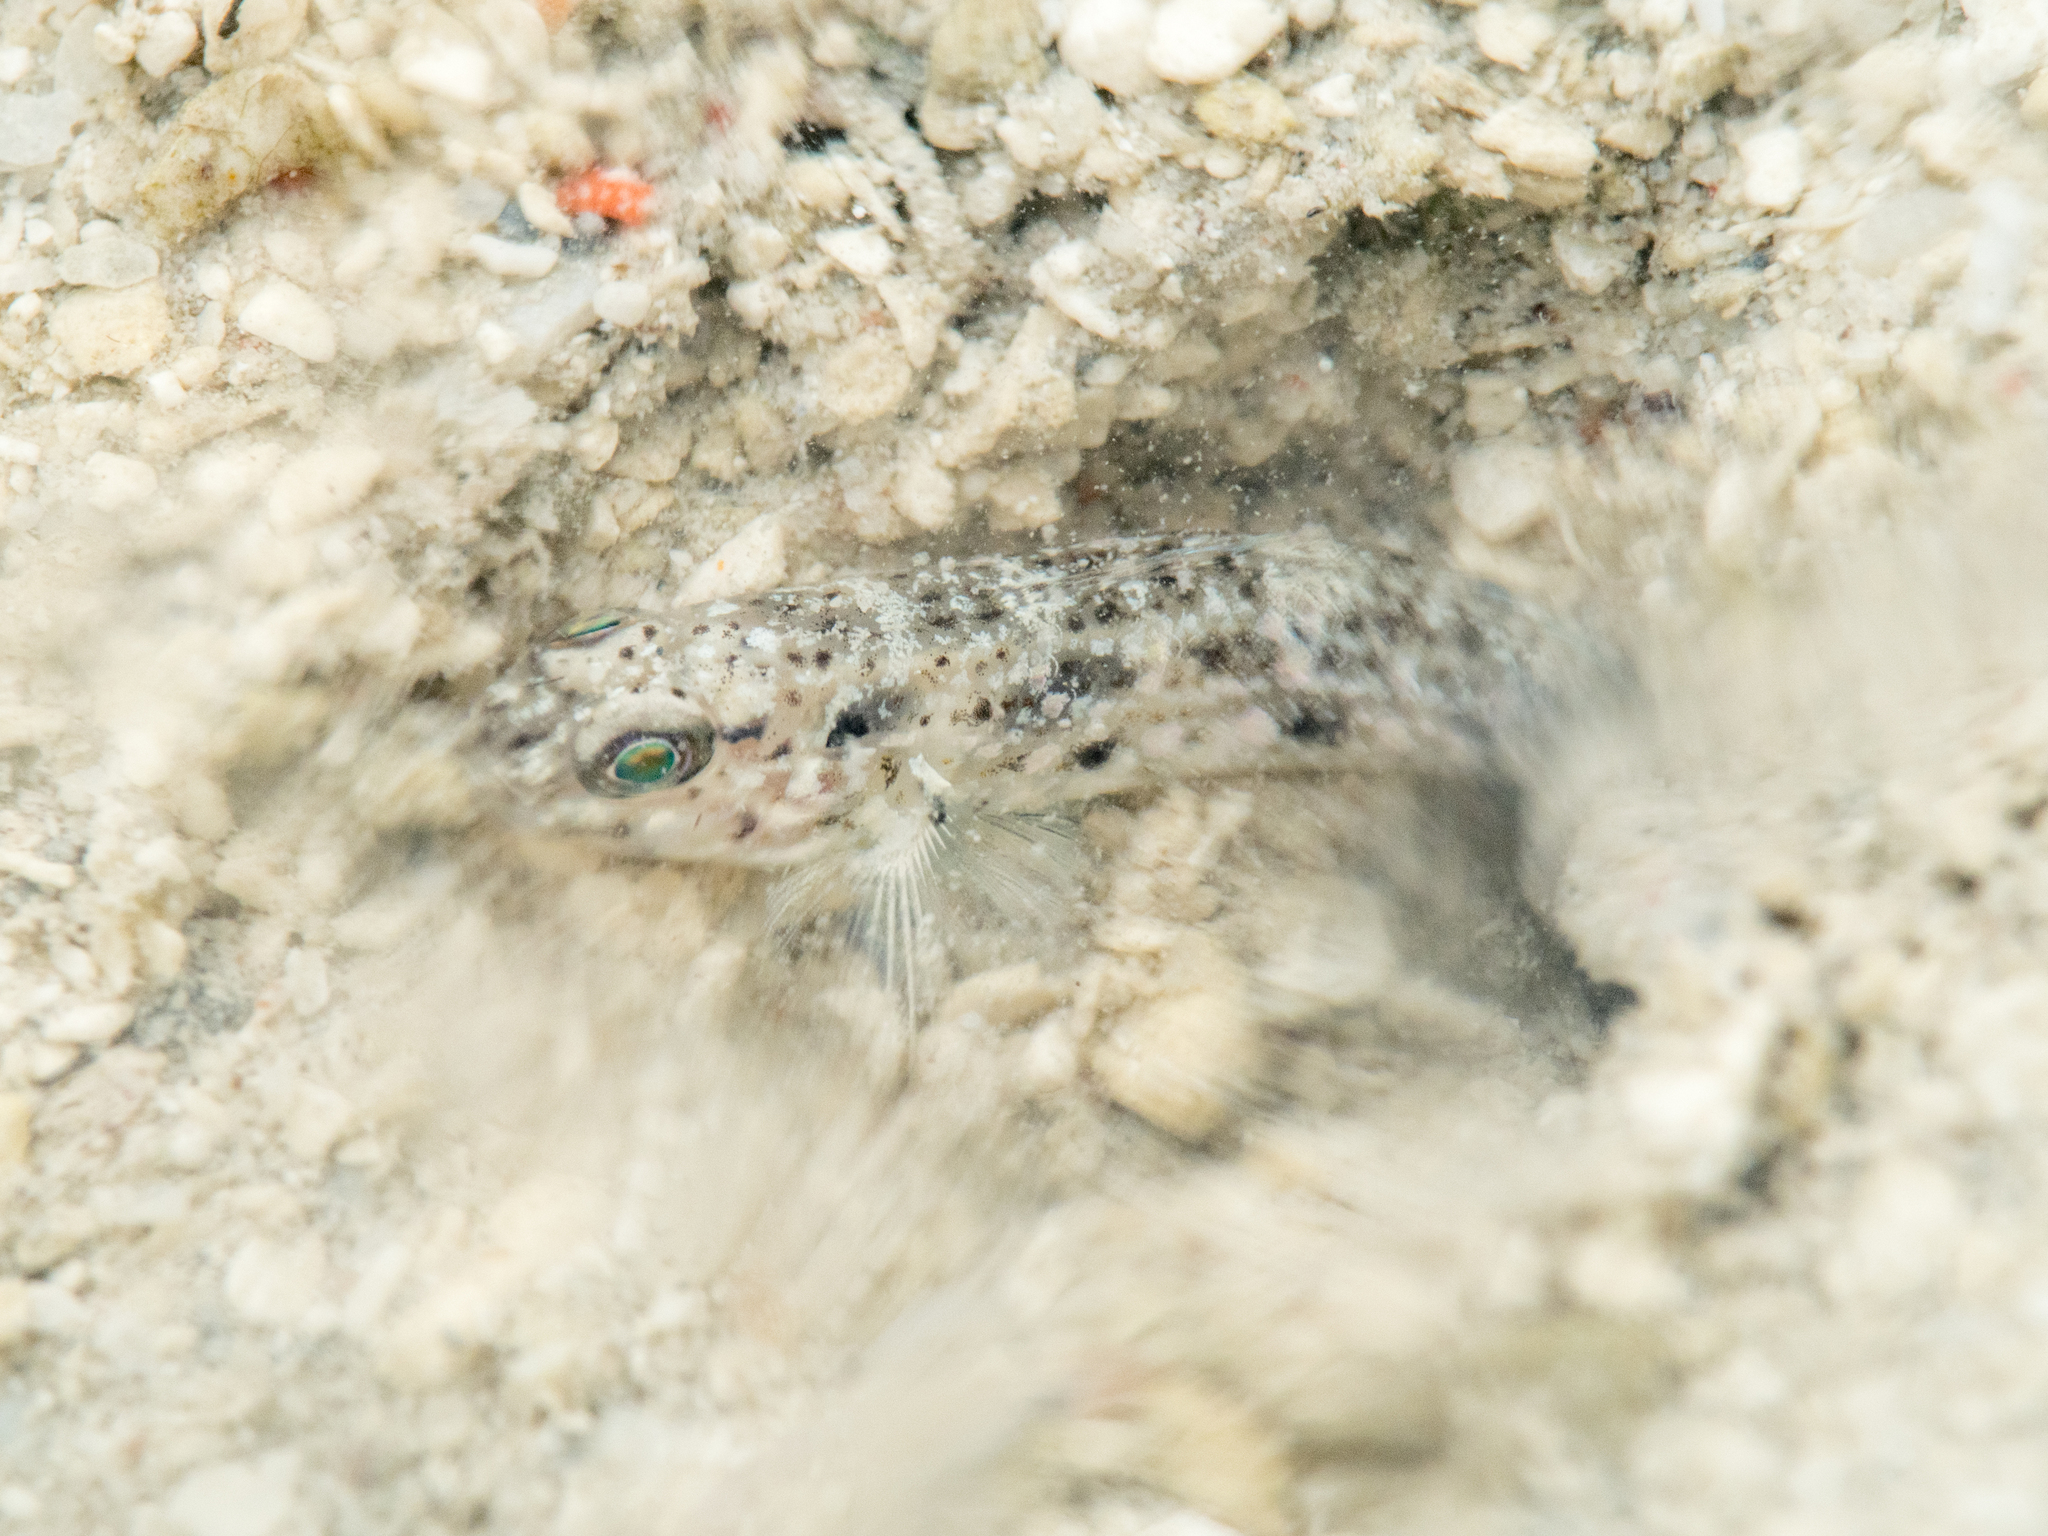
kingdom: Animalia
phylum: Chordata
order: Perciformes
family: Gobiidae
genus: Oplopomus
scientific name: Oplopomus oplopomus
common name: Spinecheek goby
